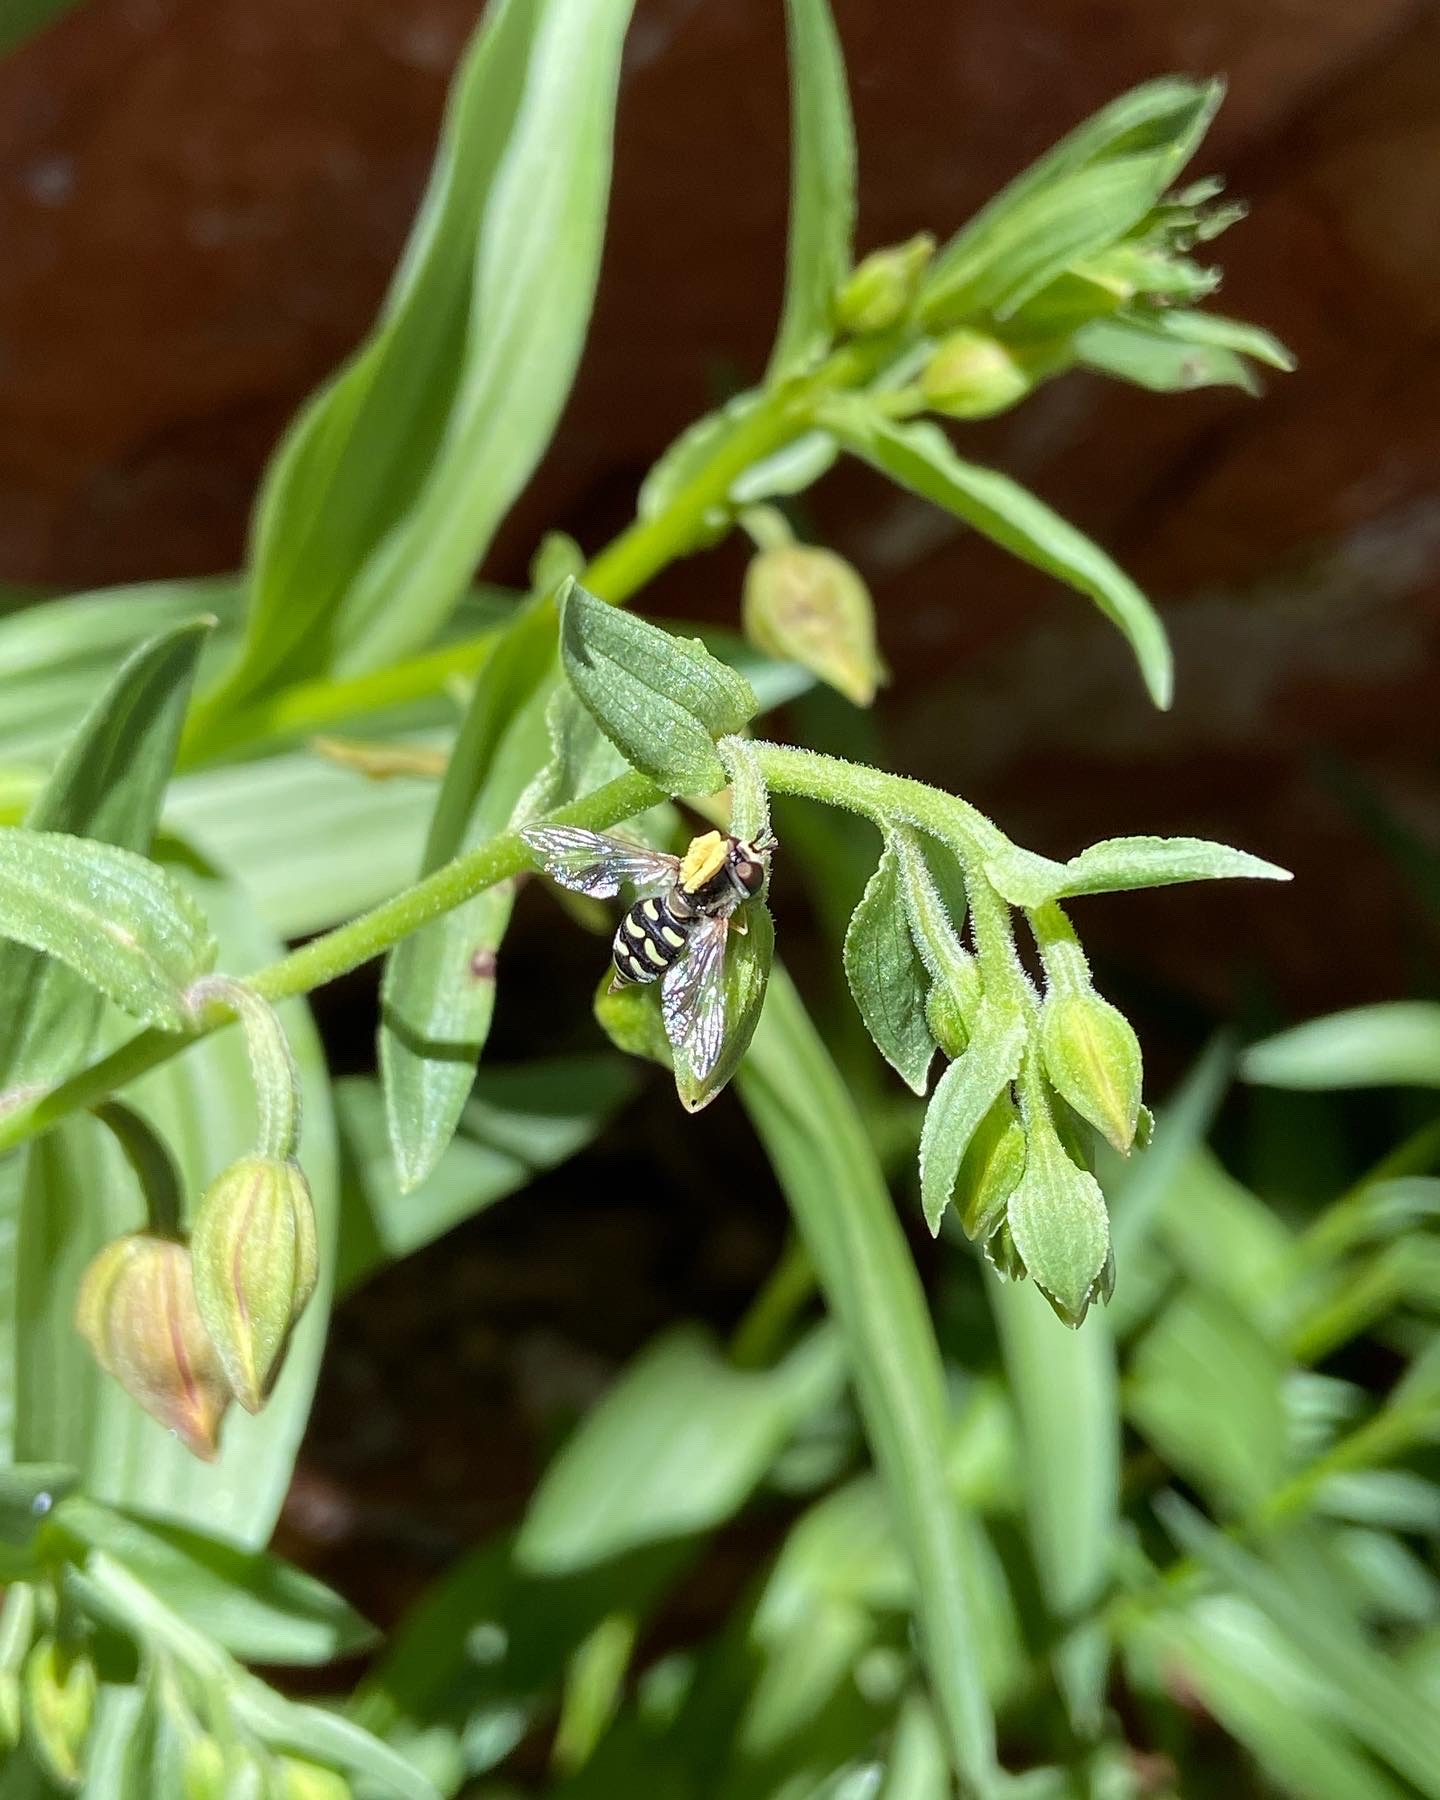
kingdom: Animalia
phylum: Arthropoda
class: Insecta
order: Diptera
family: Syrphidae
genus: Eupeodes
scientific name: Eupeodes volucris
